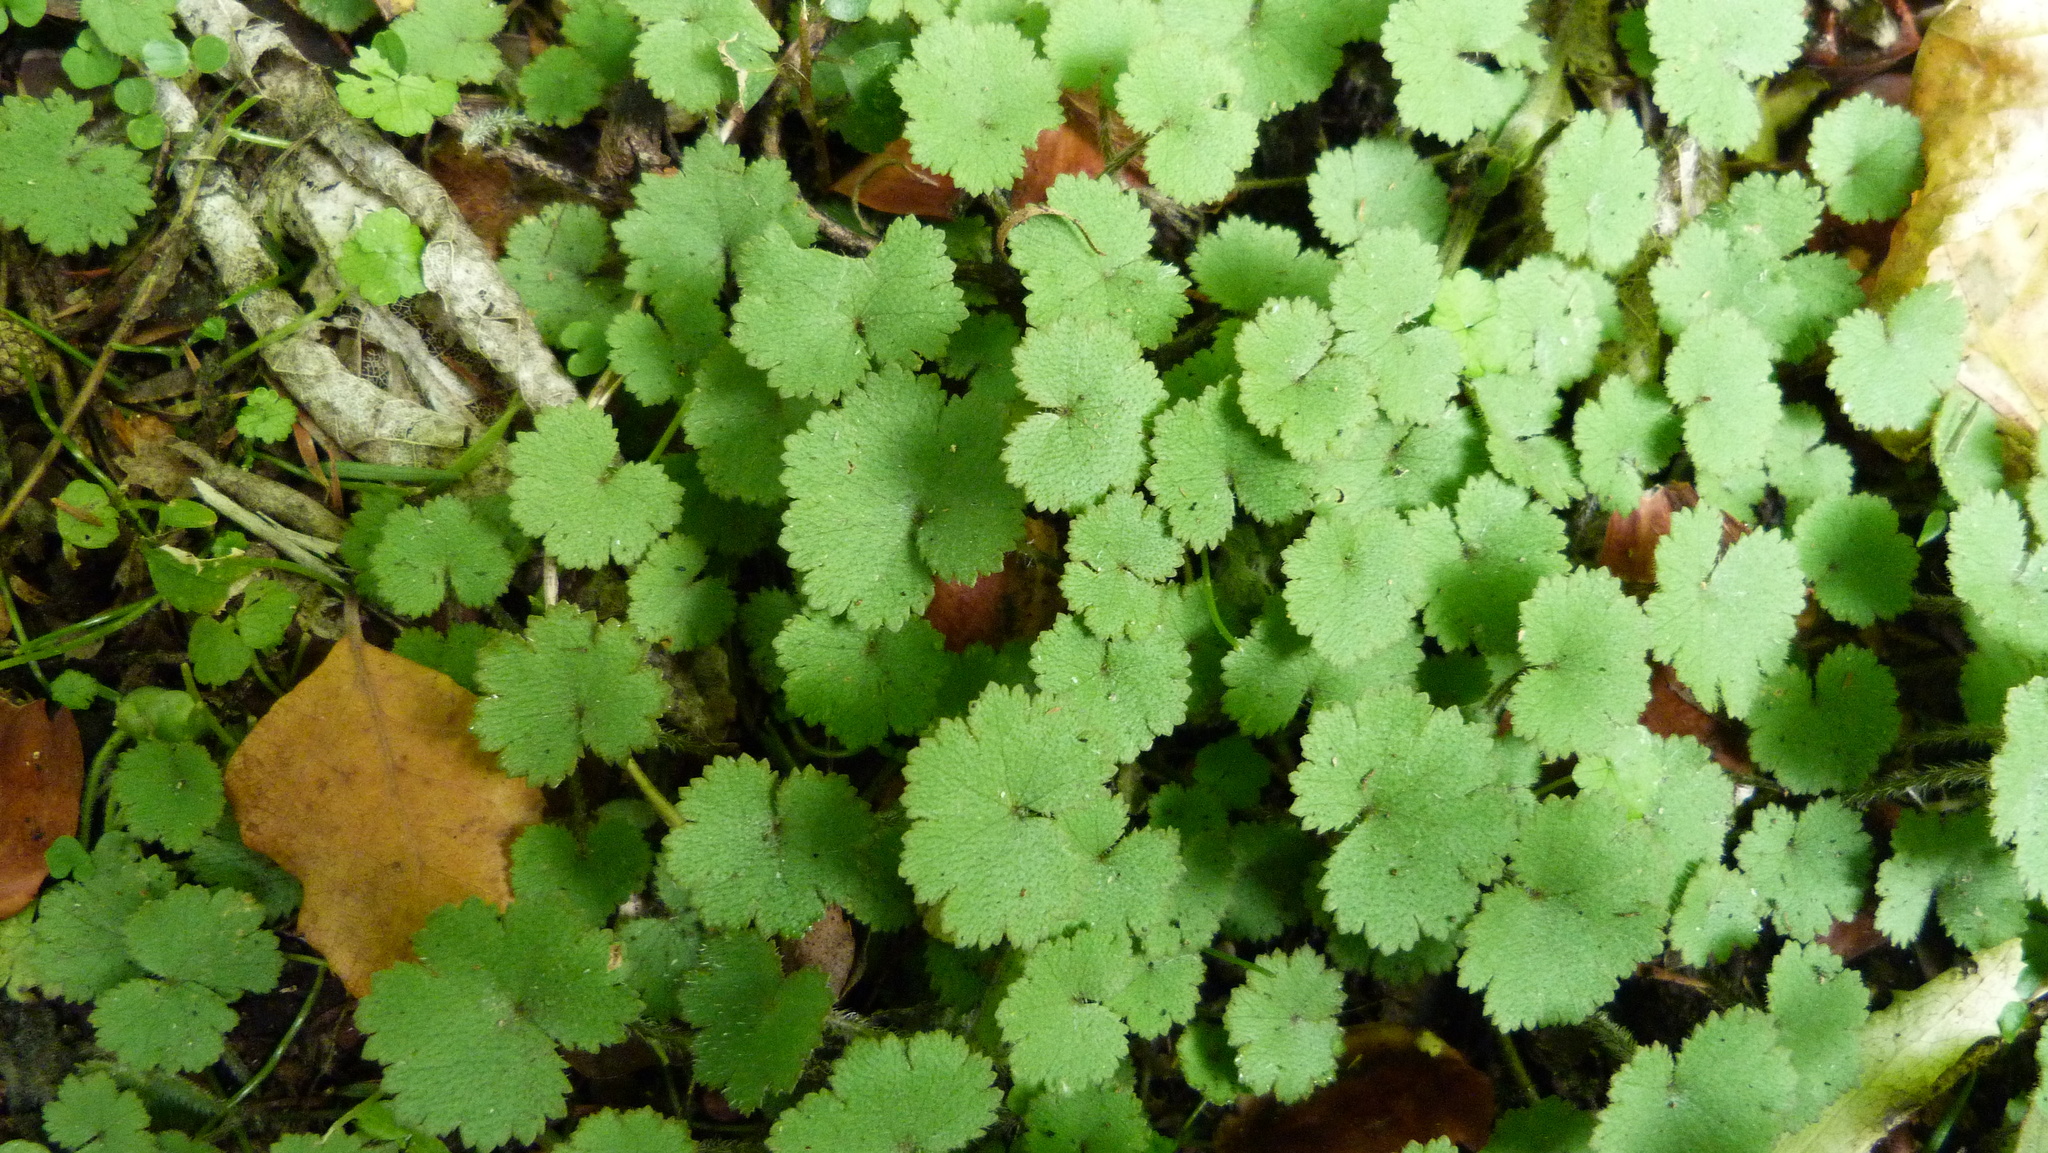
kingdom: Plantae
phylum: Tracheophyta
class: Magnoliopsida
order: Apiales
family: Araliaceae
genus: Hydrocotyle
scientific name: Hydrocotyle moschata
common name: Hairy pennywort
